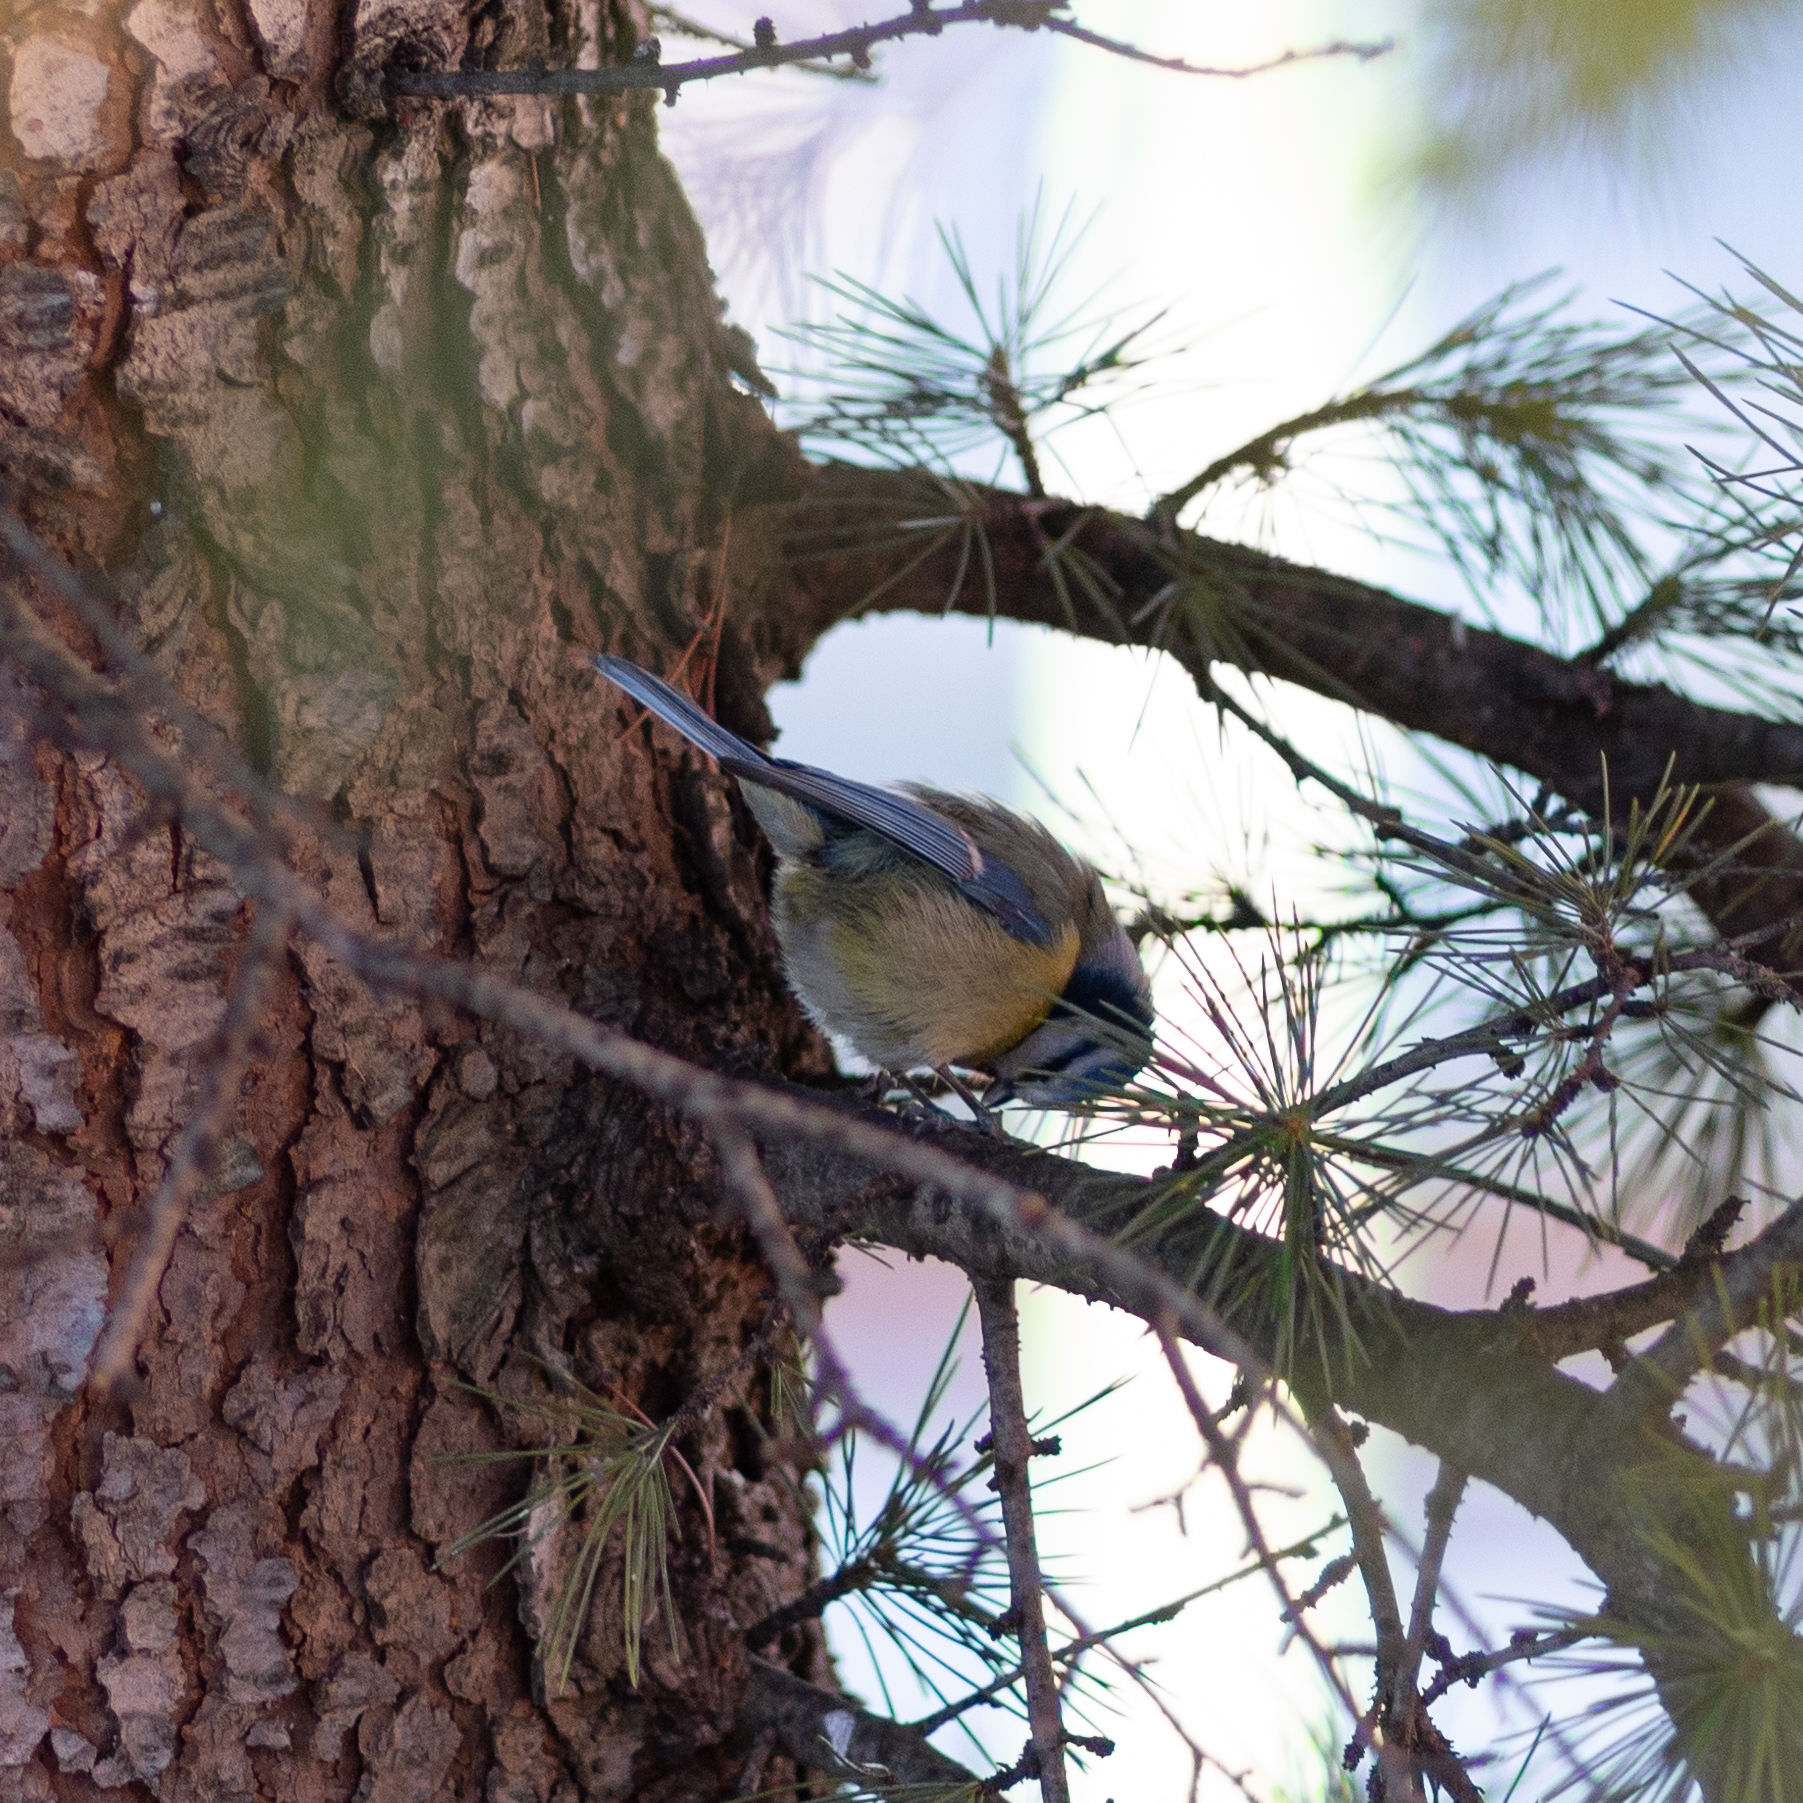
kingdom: Animalia
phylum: Chordata
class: Aves
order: Passeriformes
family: Paridae
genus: Cyanistes
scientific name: Cyanistes caeruleus
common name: Eurasian blue tit
